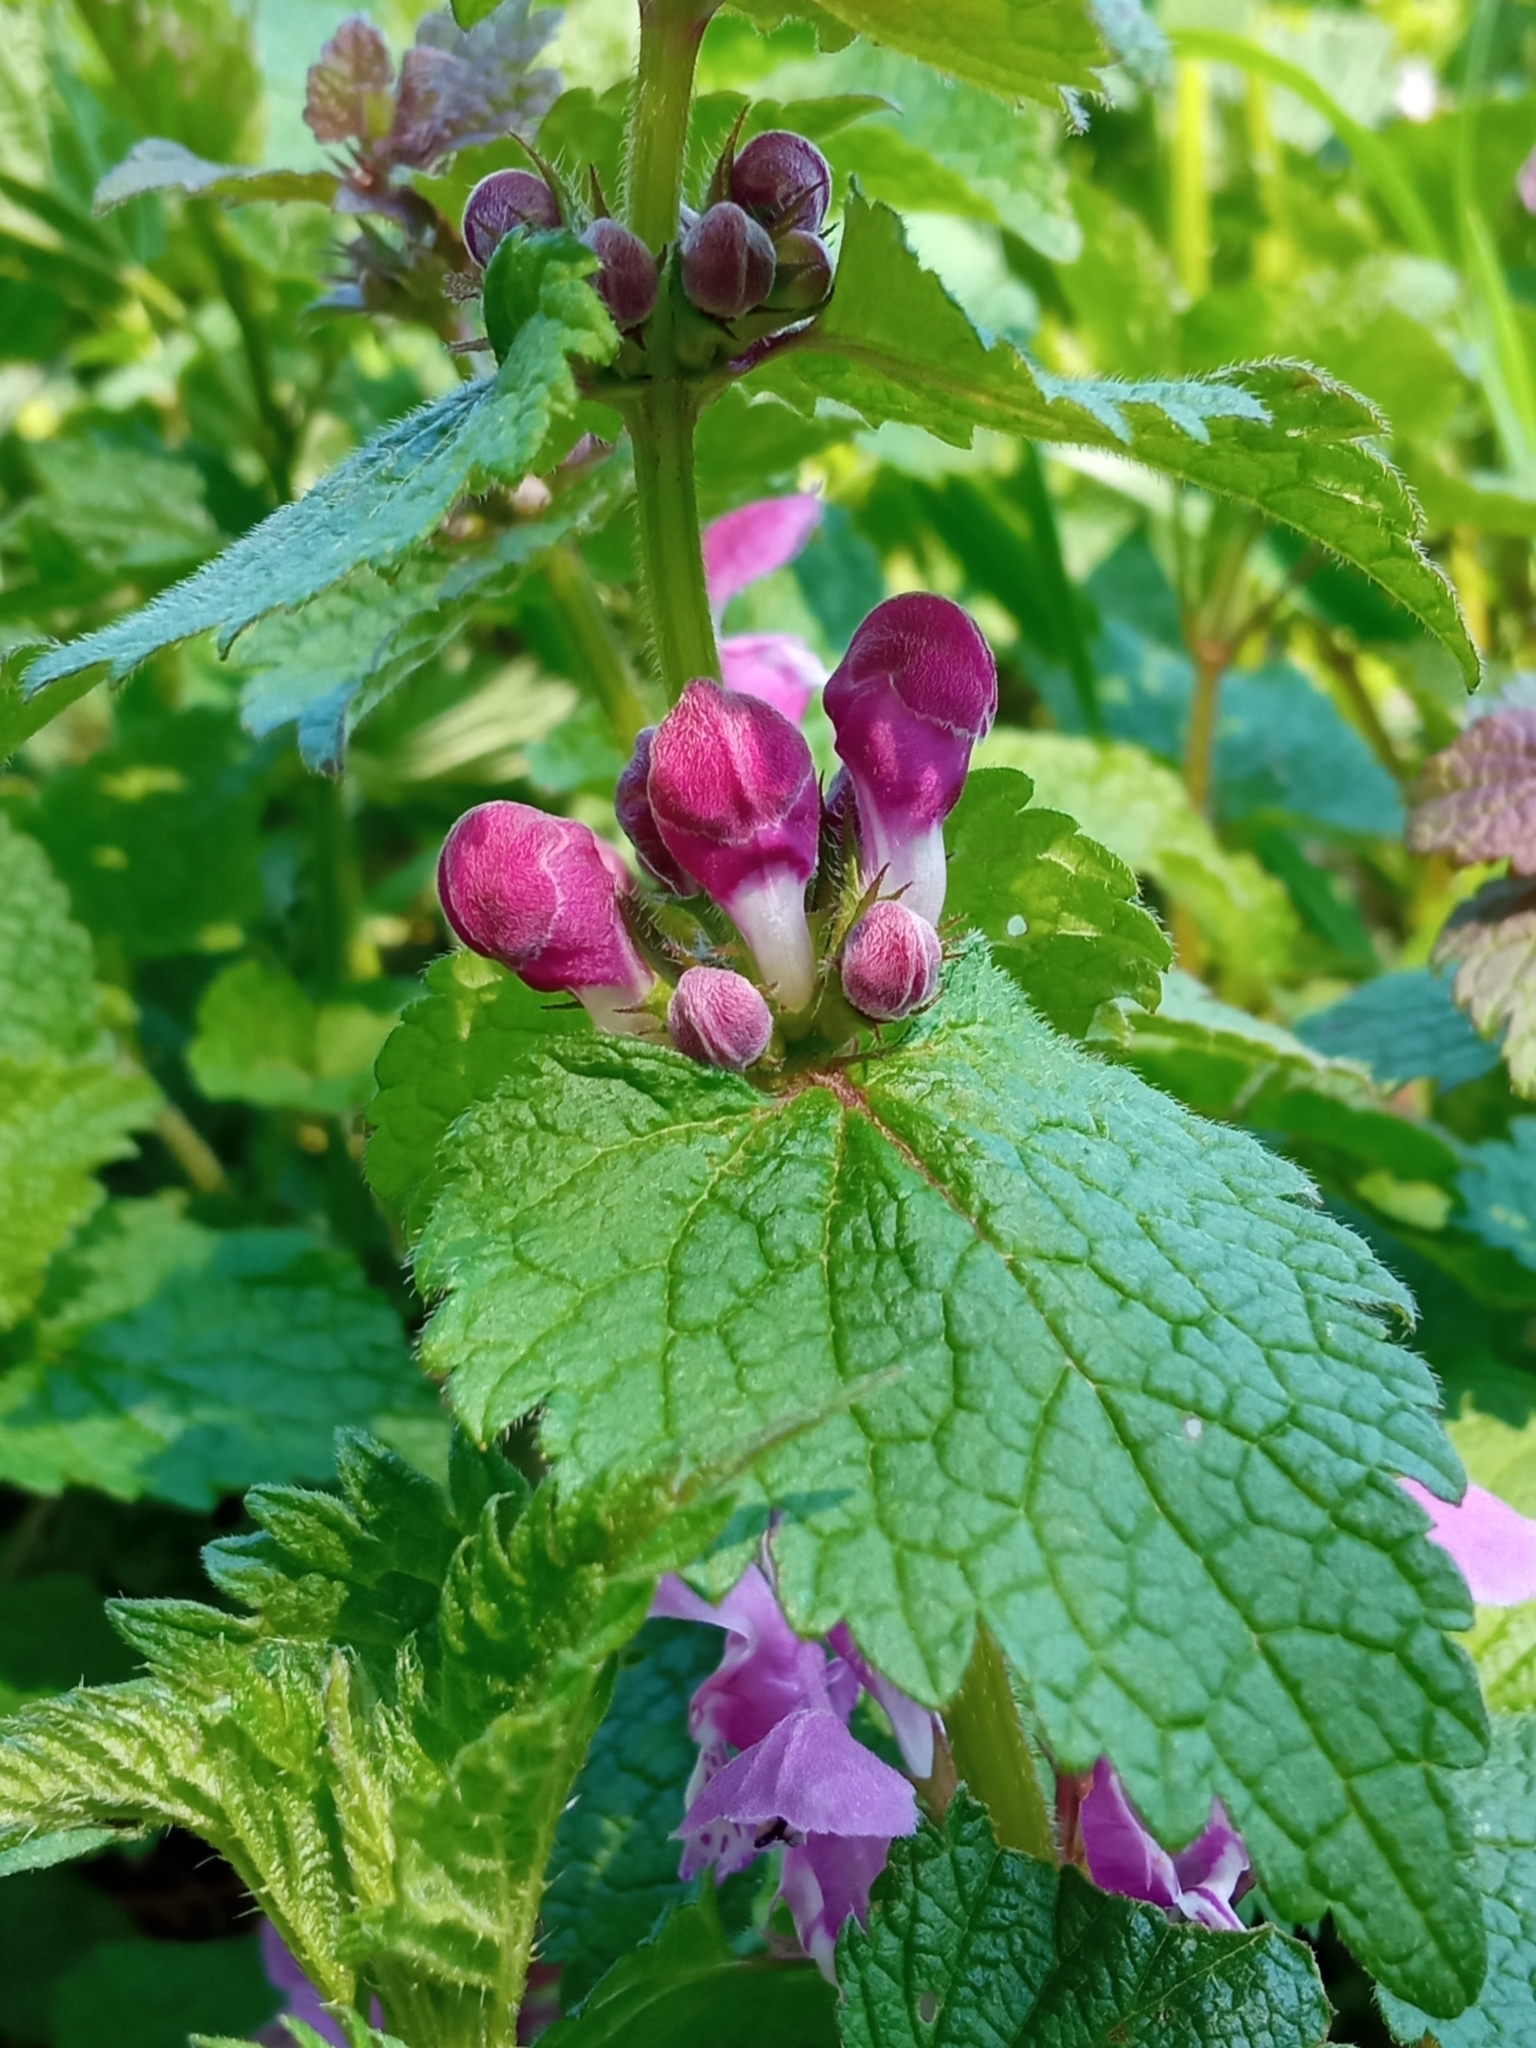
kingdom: Plantae
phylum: Tracheophyta
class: Magnoliopsida
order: Lamiales
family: Lamiaceae
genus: Lamium
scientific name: Lamium maculatum
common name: Spotted dead-nettle
